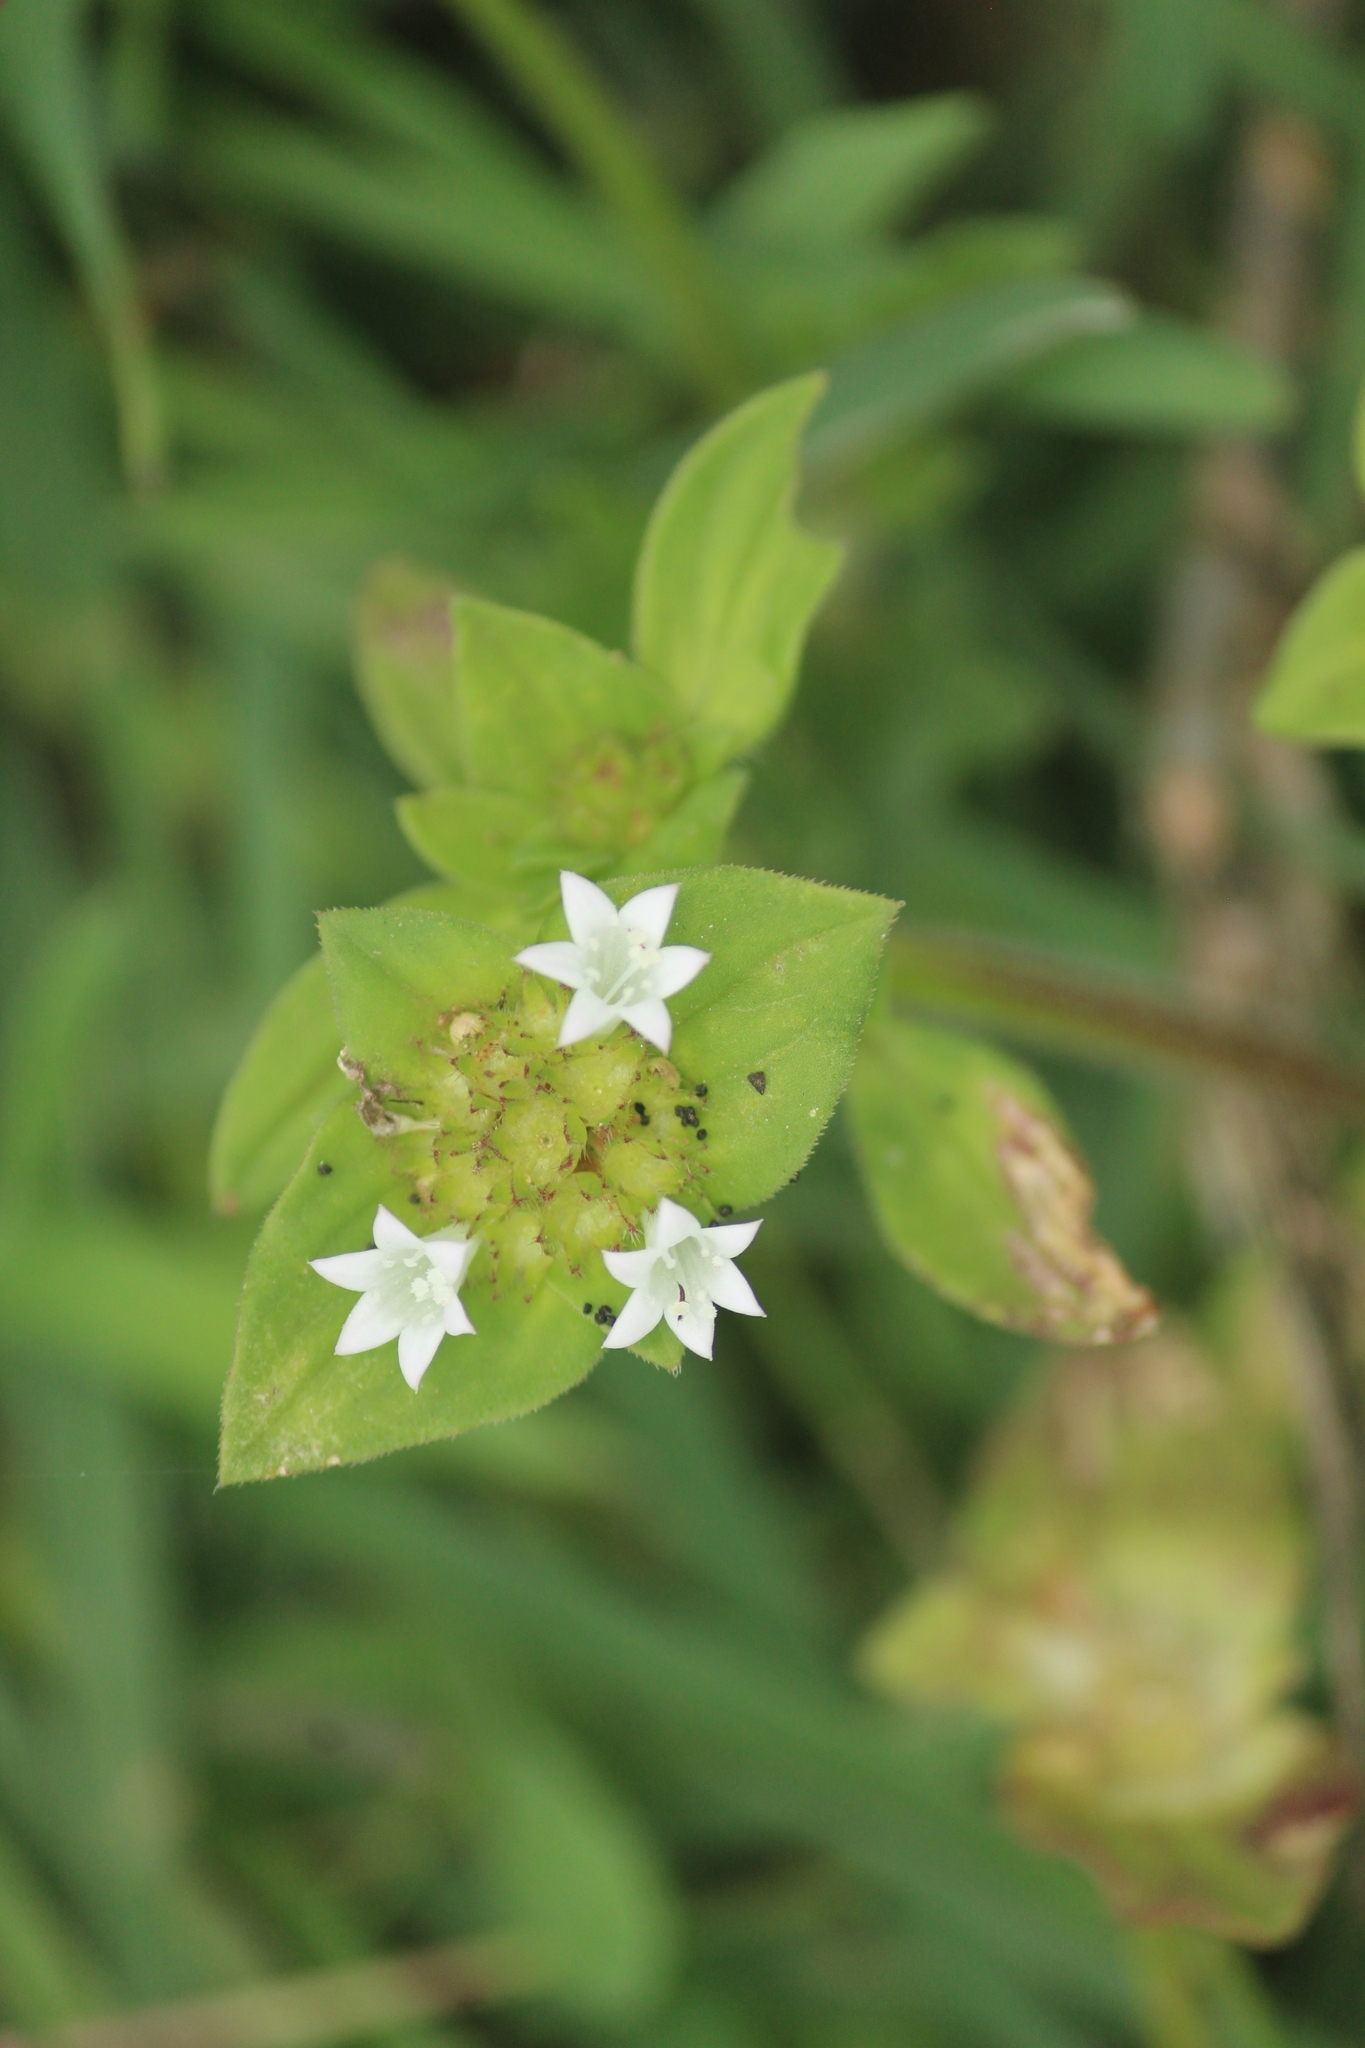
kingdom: Plantae
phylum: Tracheophyta
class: Magnoliopsida
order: Gentianales
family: Rubiaceae
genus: Richardia
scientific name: Richardia scabra
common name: Rough mexican clover
